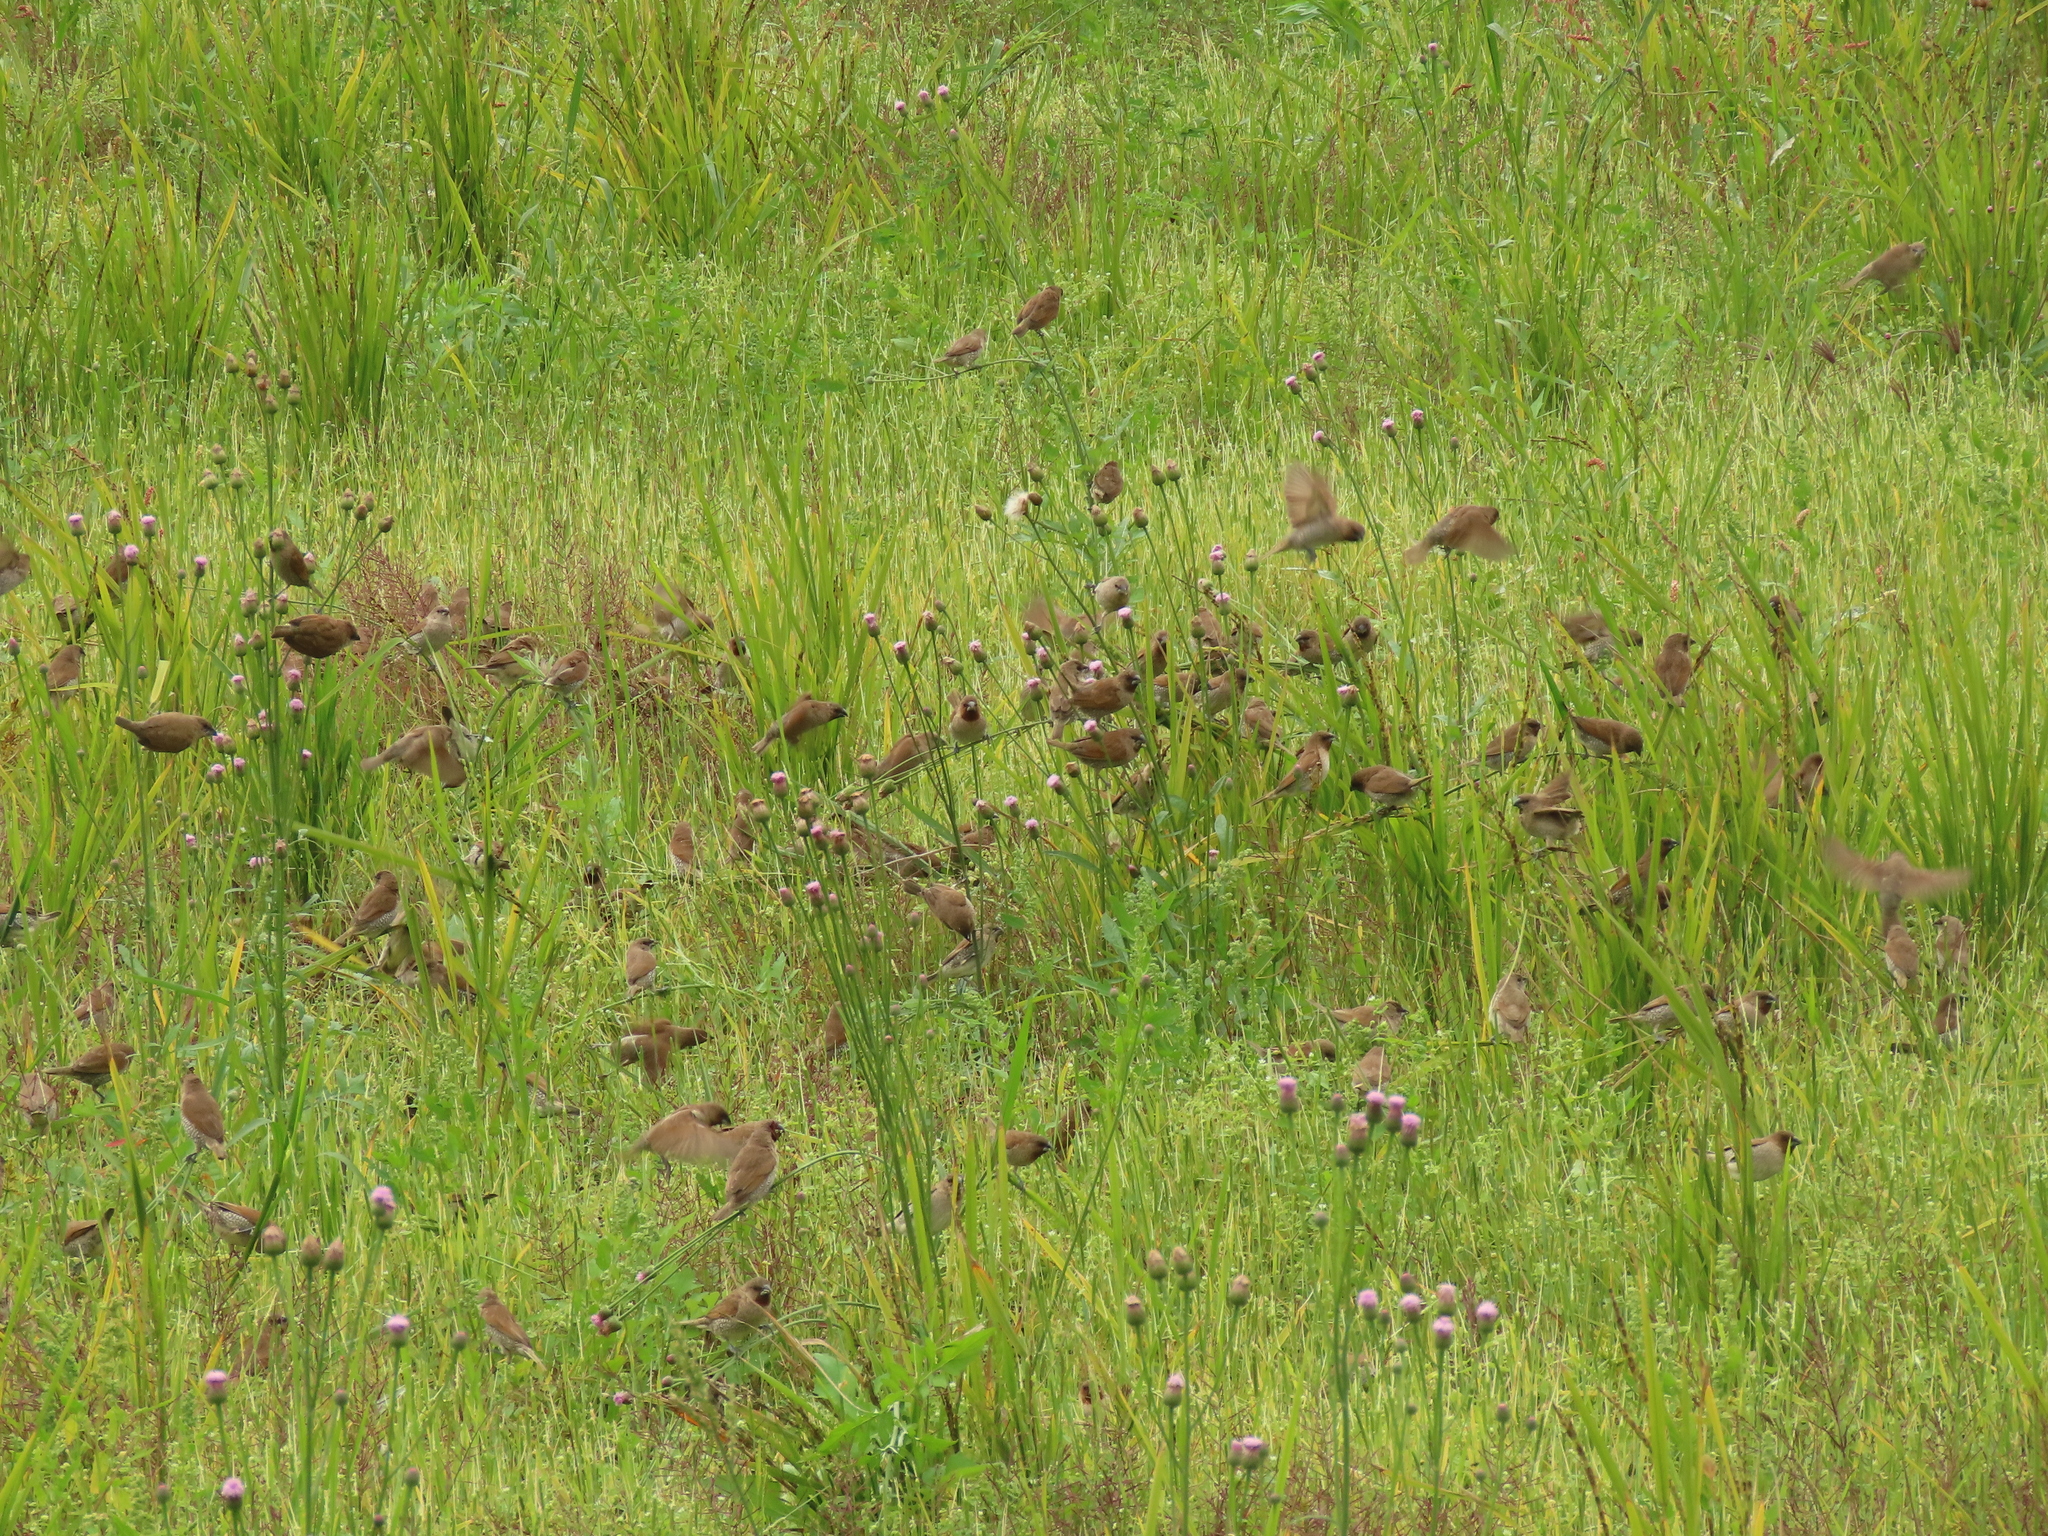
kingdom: Animalia
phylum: Chordata
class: Aves
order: Passeriformes
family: Estrildidae
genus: Lonchura
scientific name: Lonchura punctulata
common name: Scaly-breasted munia
